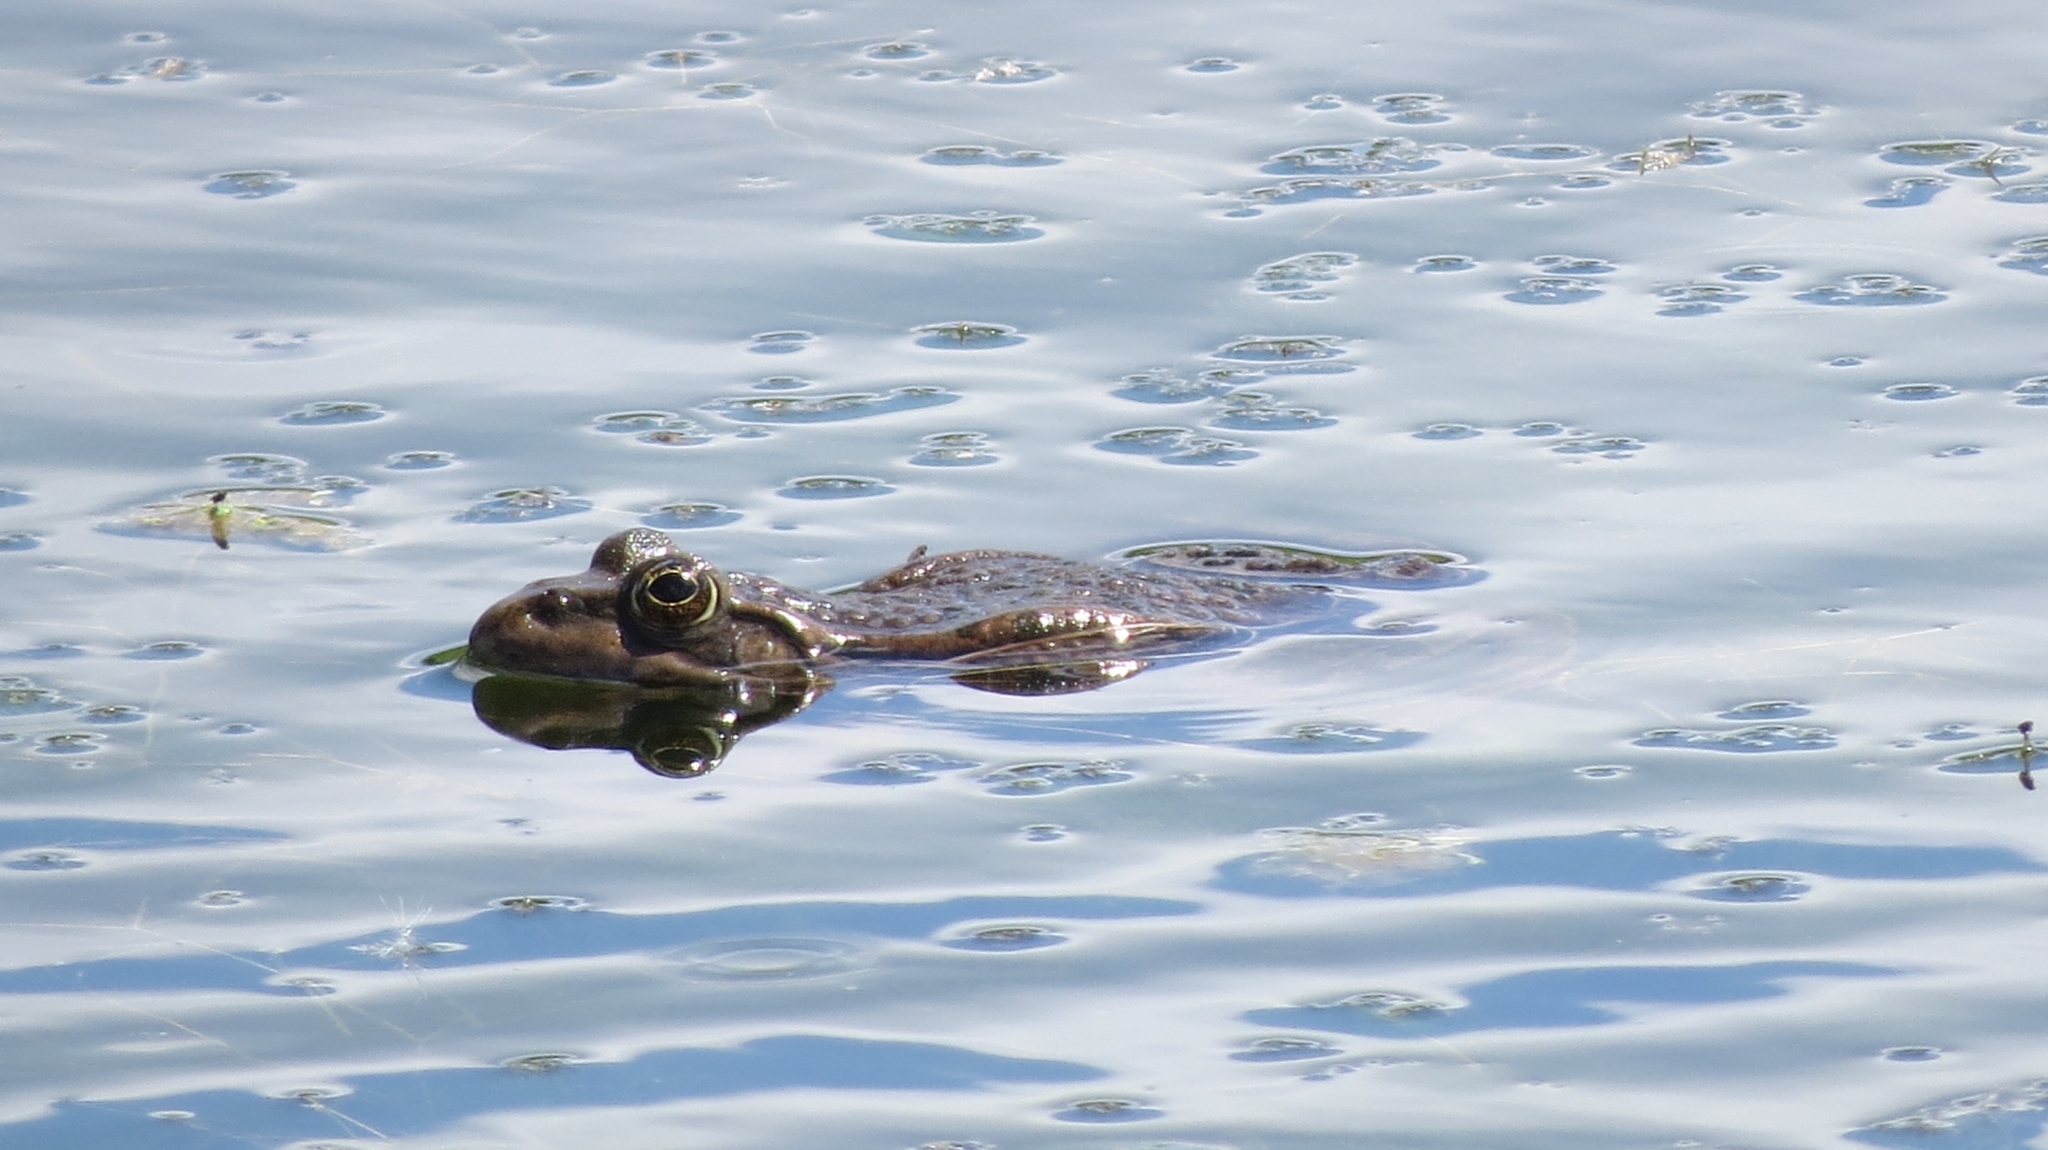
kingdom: Animalia
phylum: Chordata
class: Amphibia
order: Anura
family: Ranidae
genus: Pelophylax
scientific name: Pelophylax ridibundus
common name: Marsh frog
